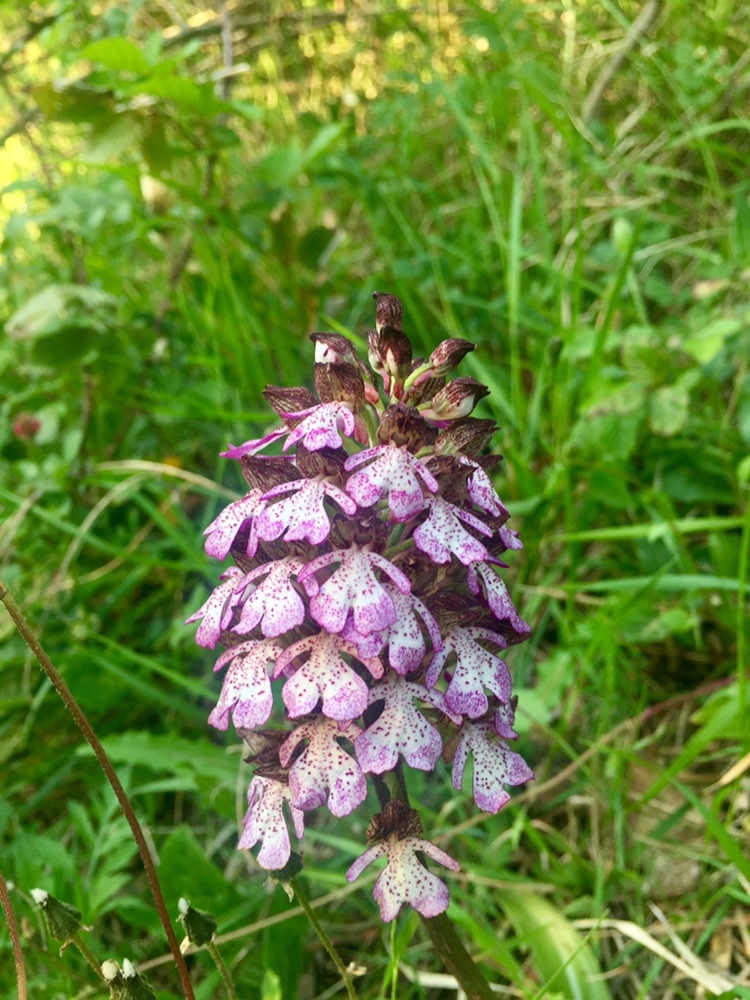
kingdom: Plantae
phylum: Tracheophyta
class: Liliopsida
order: Asparagales
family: Orchidaceae
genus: Orchis
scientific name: Orchis purpurea
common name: Lady orchid
